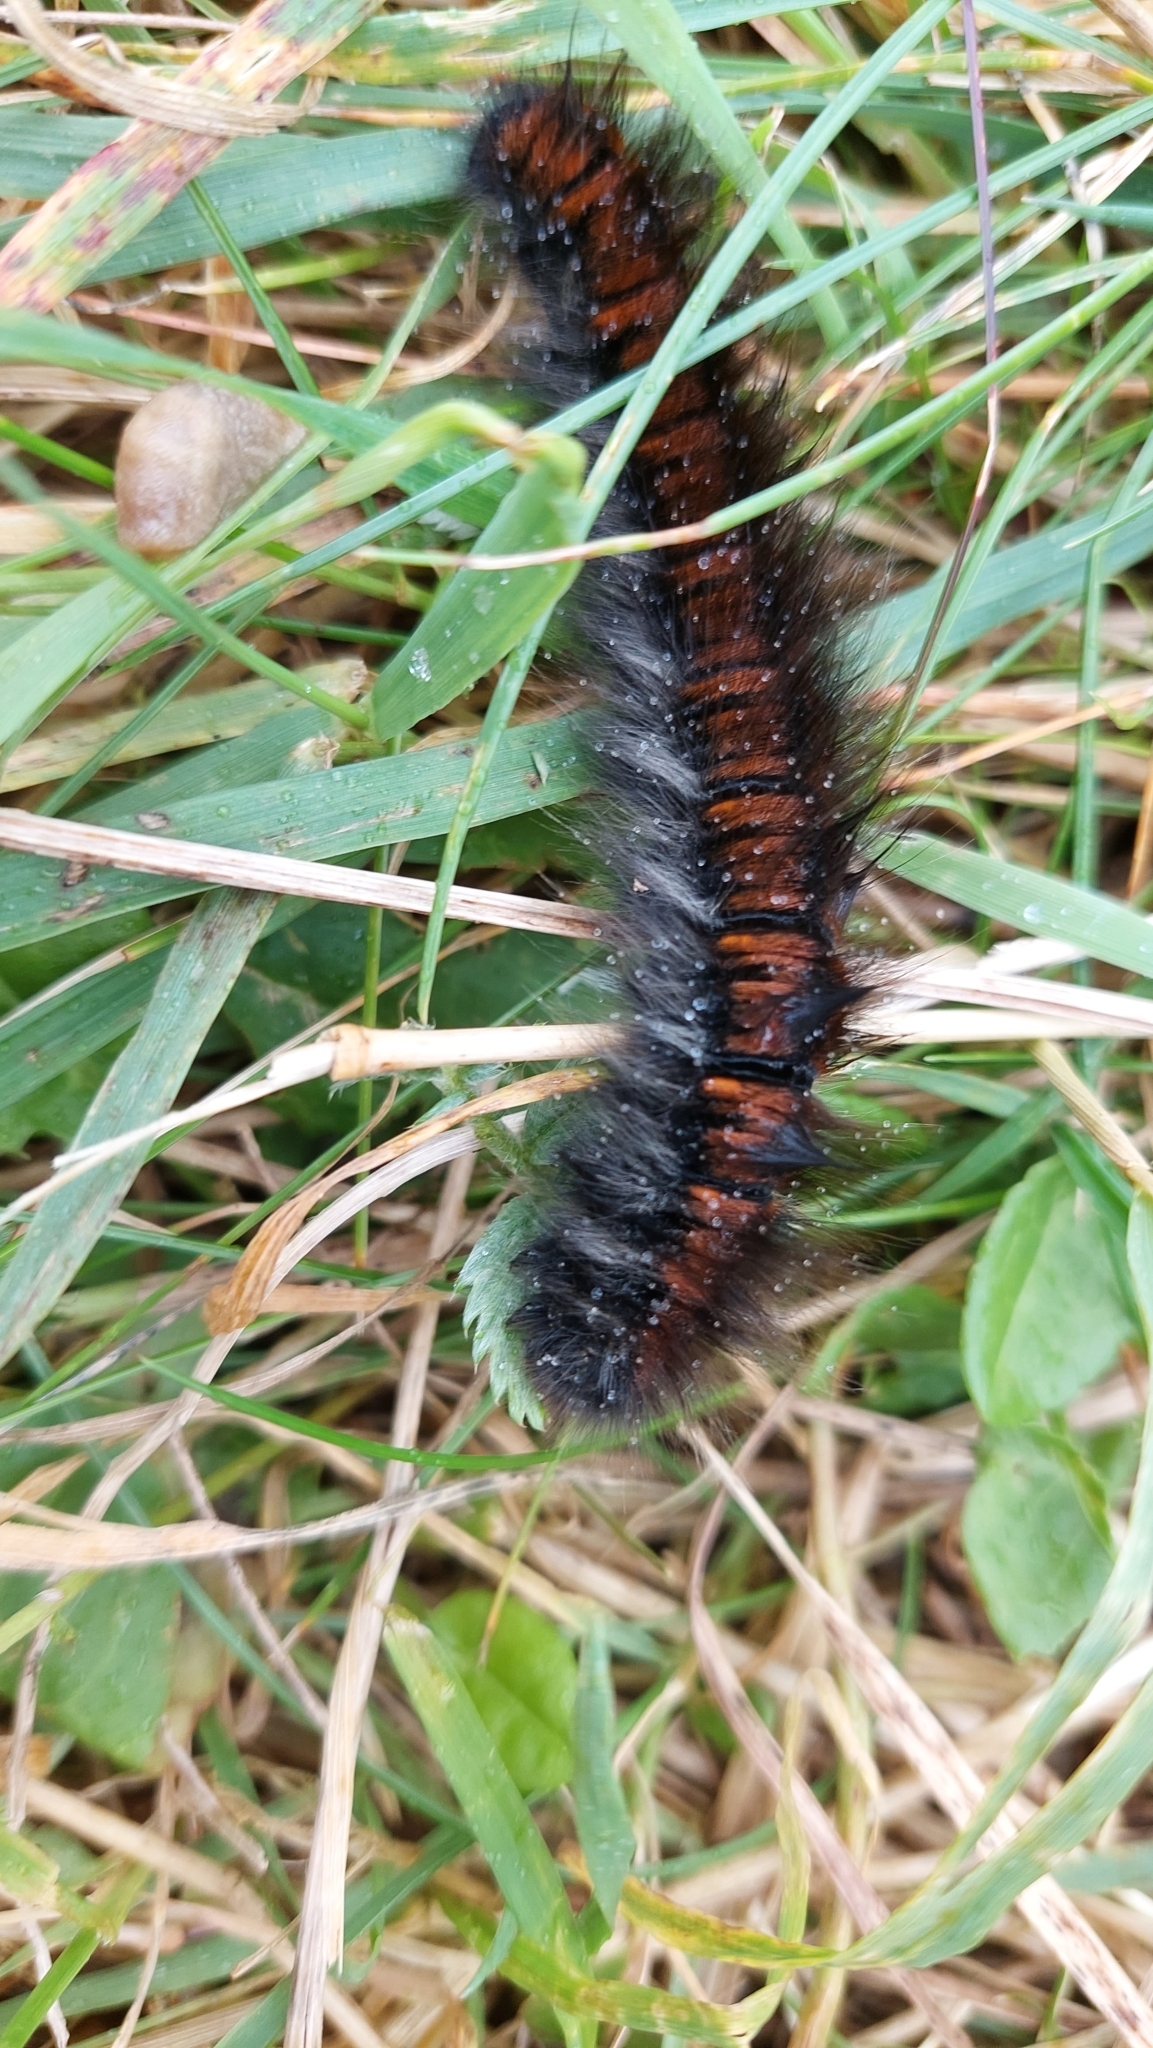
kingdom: Animalia
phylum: Arthropoda
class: Insecta
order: Lepidoptera
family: Lasiocampidae
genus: Macrothylacia
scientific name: Macrothylacia rubi
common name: Fox moth
